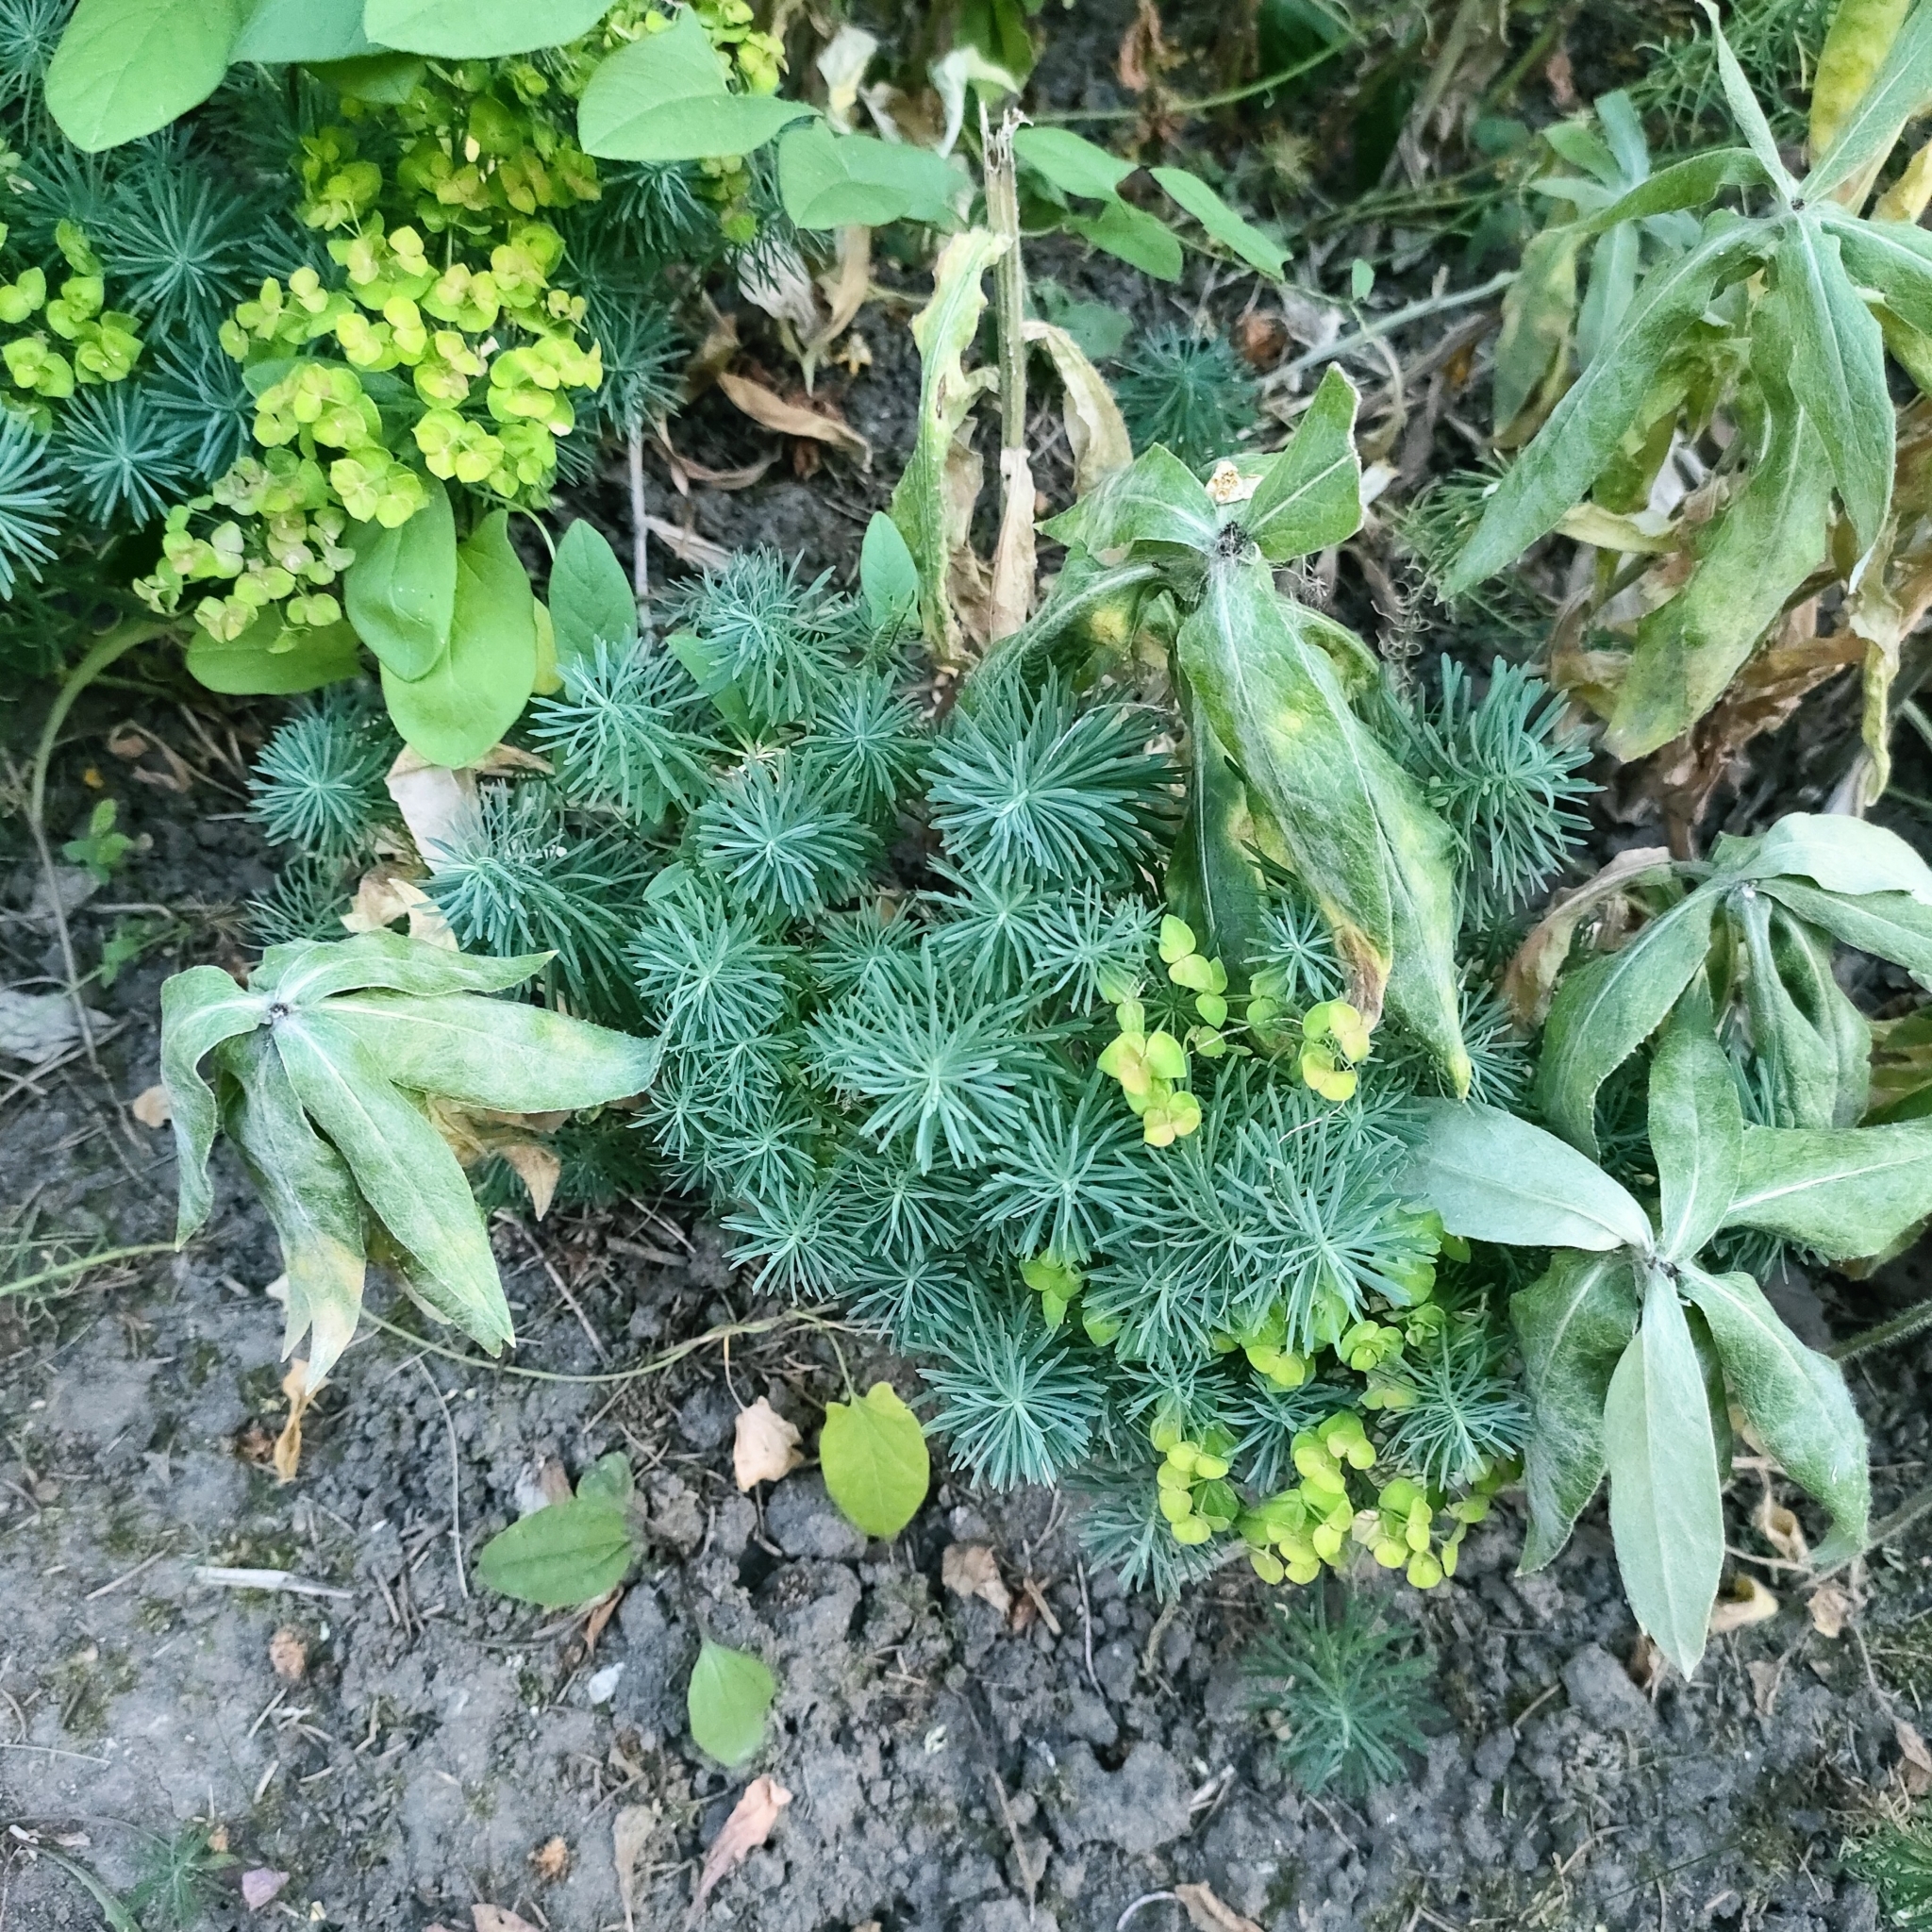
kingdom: Plantae
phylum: Tracheophyta
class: Magnoliopsida
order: Malpighiales
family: Euphorbiaceae
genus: Euphorbia
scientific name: Euphorbia cyparissias
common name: Cypress spurge
